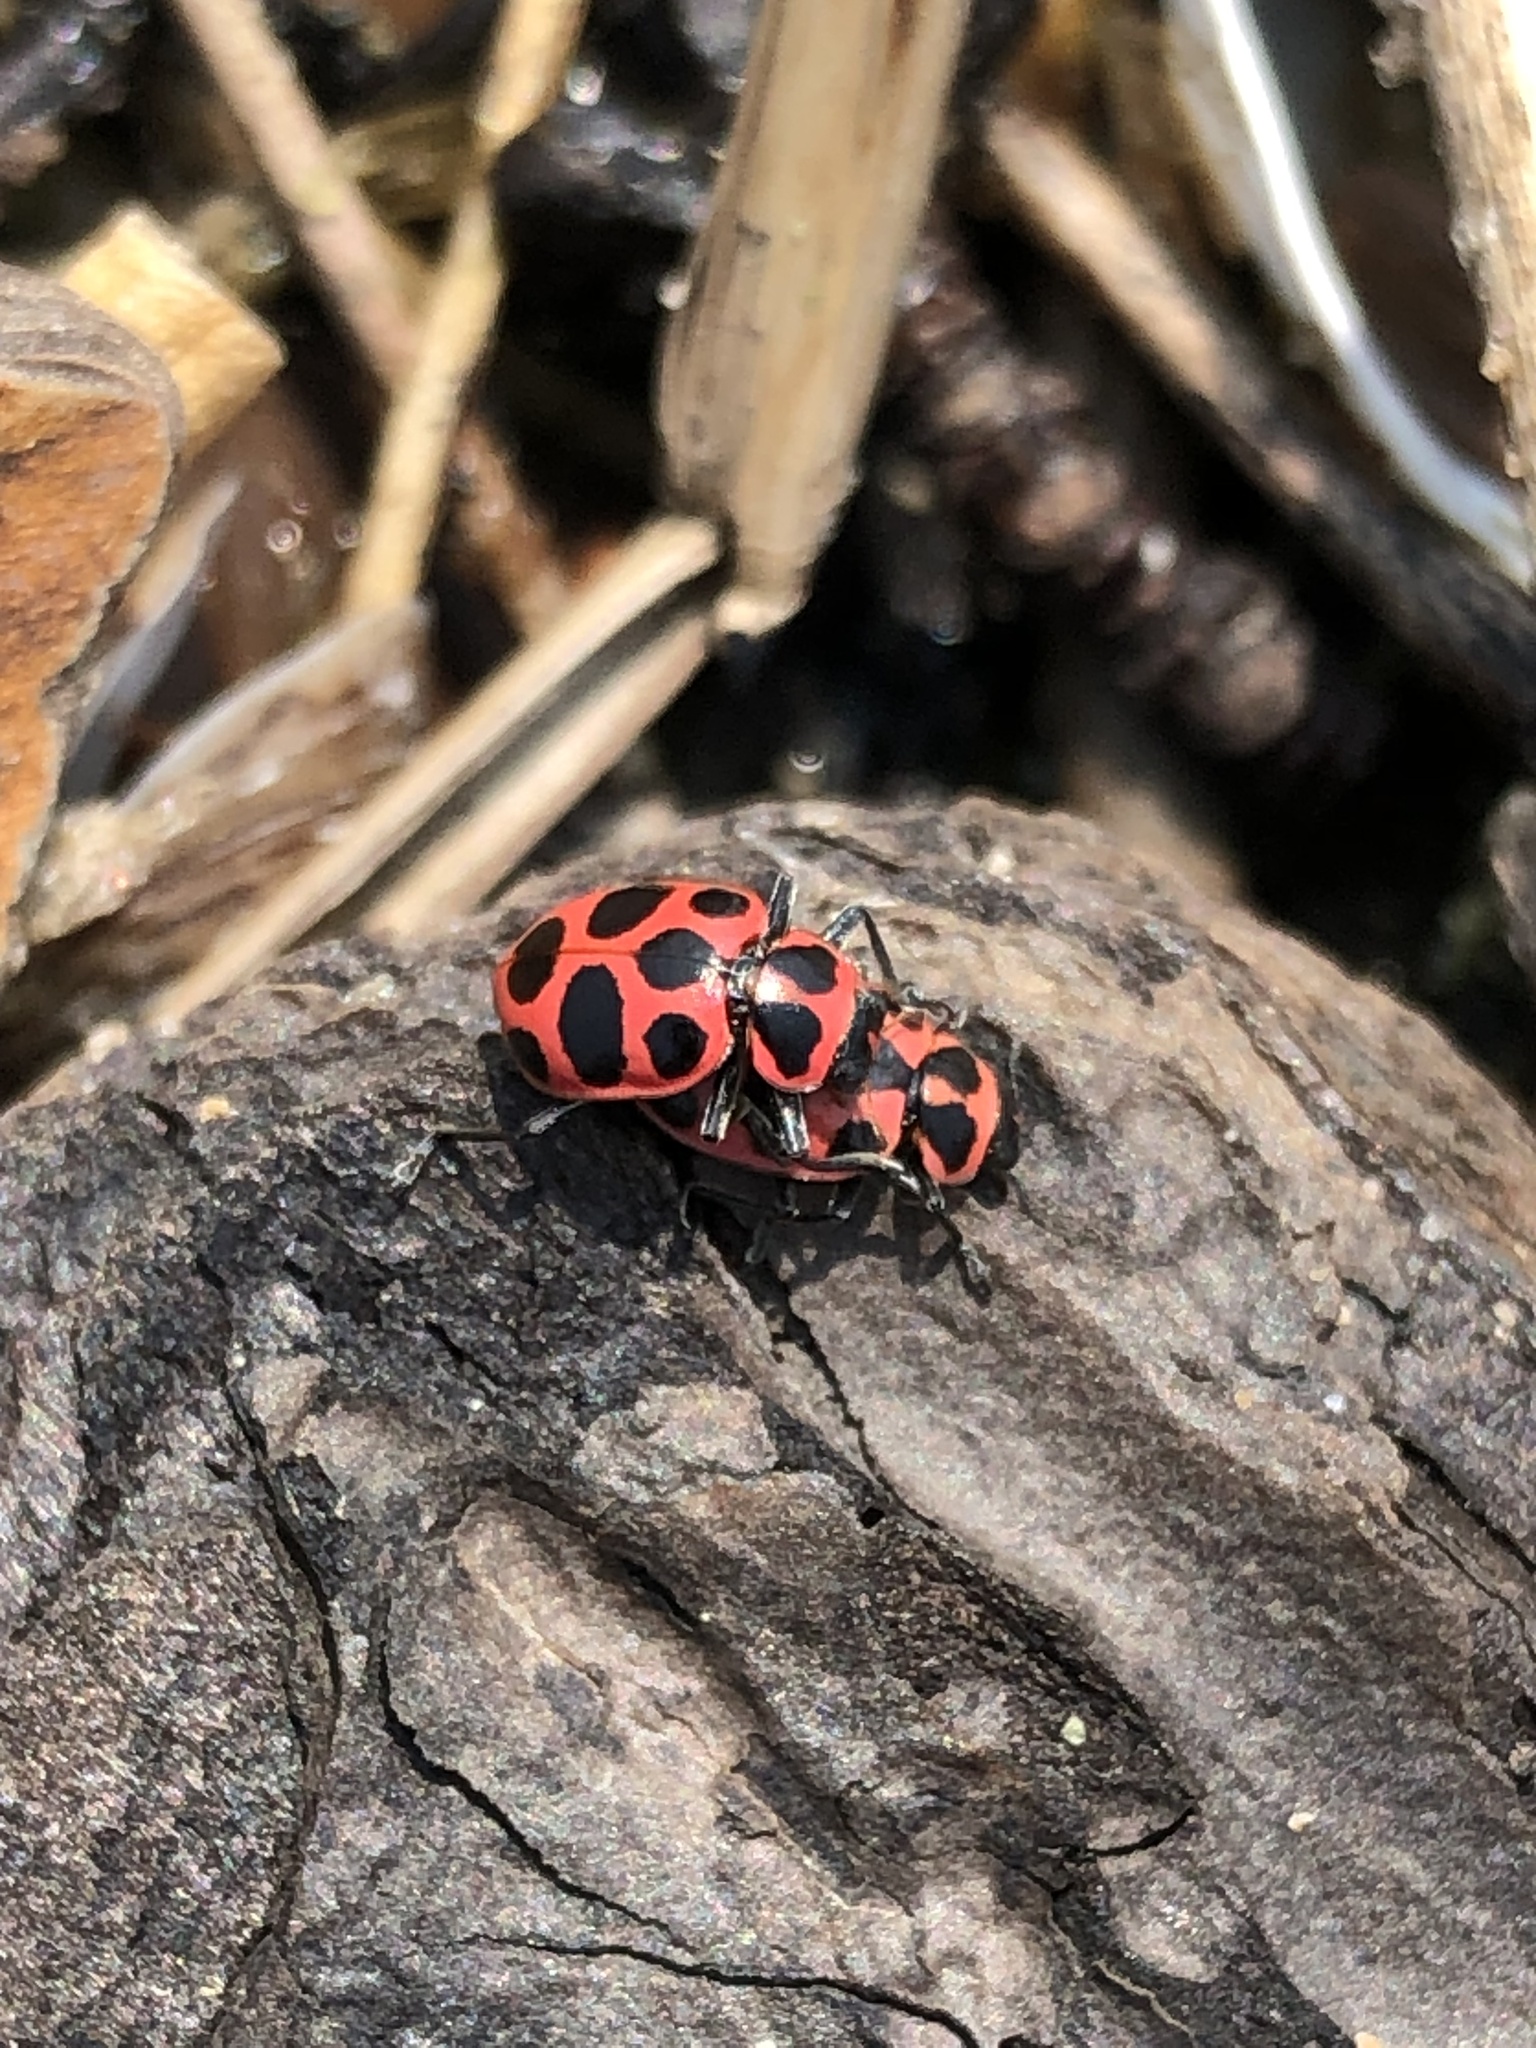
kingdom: Animalia
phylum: Arthropoda
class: Insecta
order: Coleoptera
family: Coccinellidae
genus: Coleomegilla
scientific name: Coleomegilla maculata
